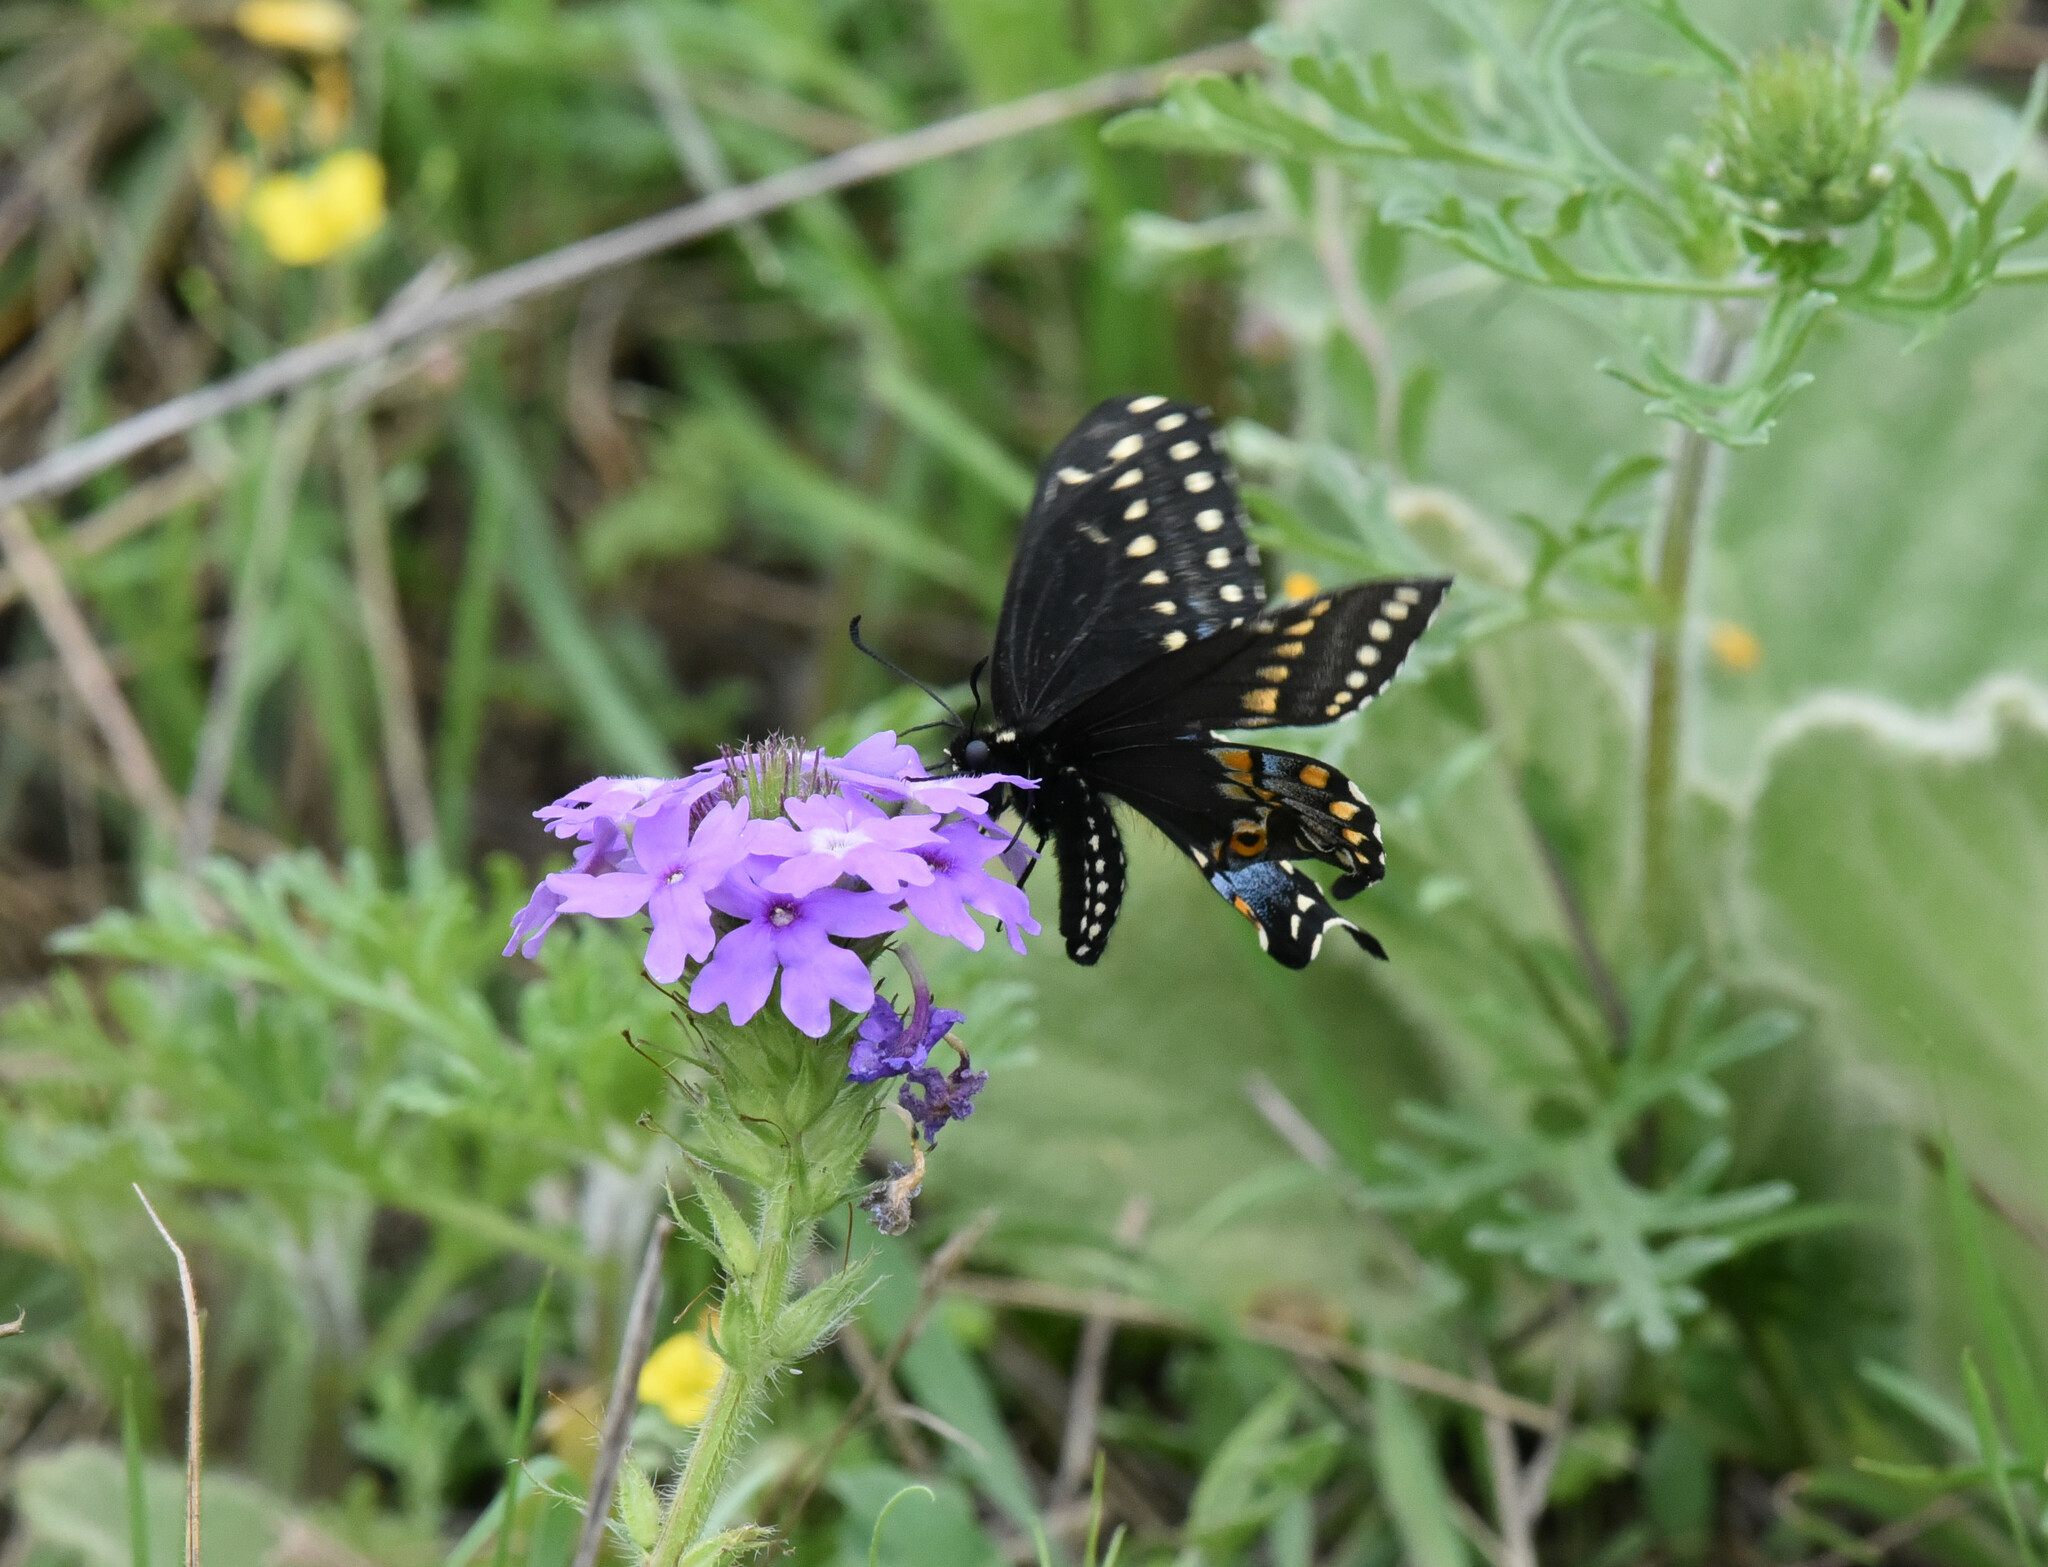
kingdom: Animalia
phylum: Arthropoda
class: Insecta
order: Lepidoptera
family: Papilionidae
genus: Papilio
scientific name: Papilio polyxenes
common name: Black swallowtail
